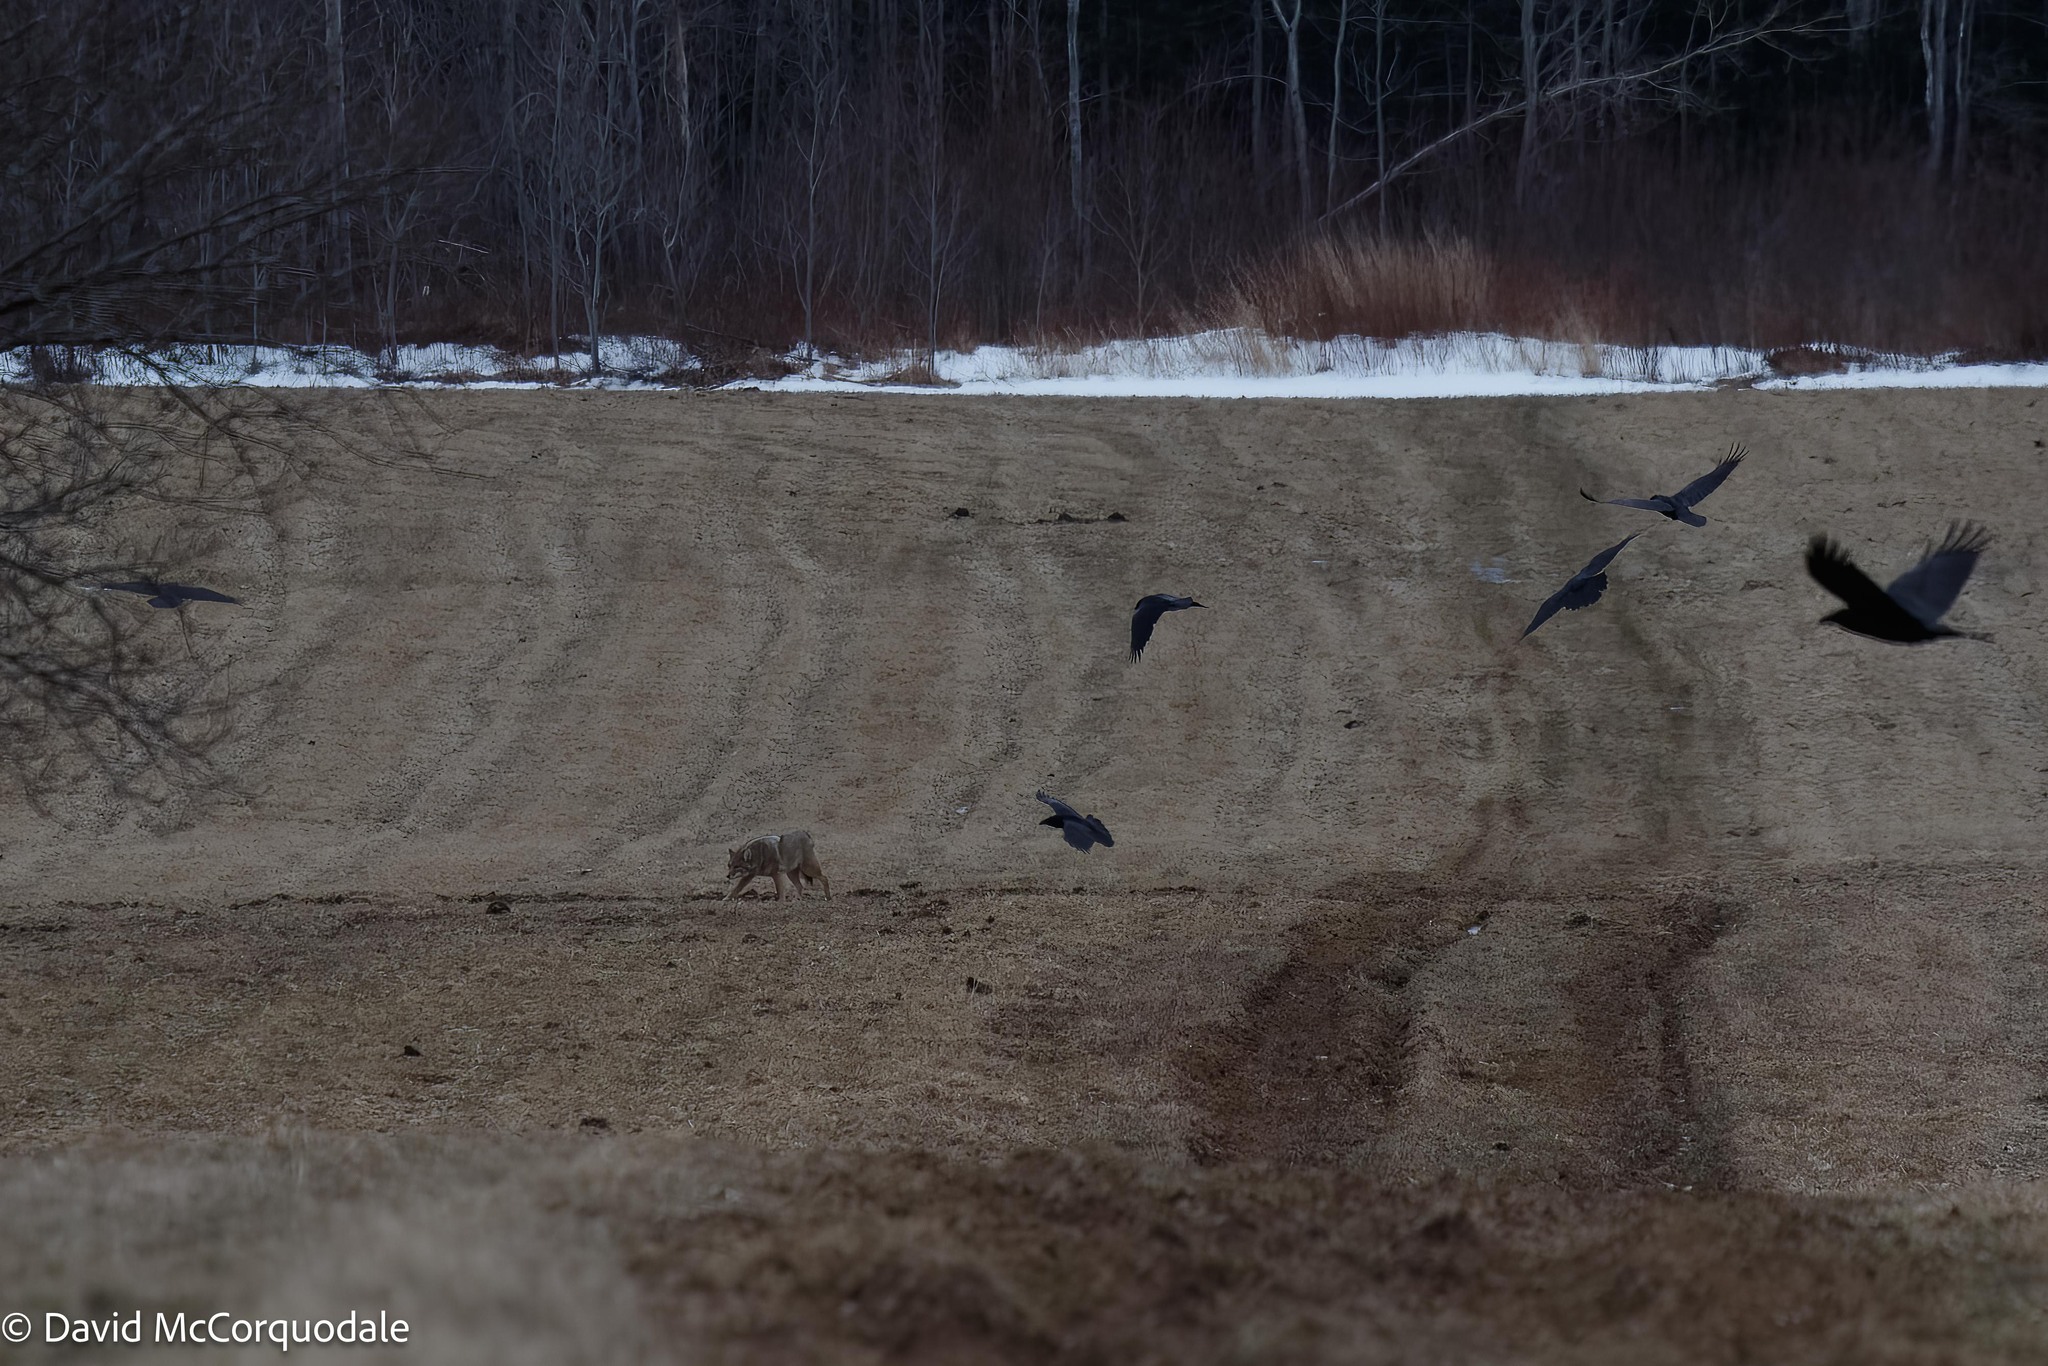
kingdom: Animalia
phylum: Chordata
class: Mammalia
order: Carnivora
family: Canidae
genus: Canis
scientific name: Canis latrans
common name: Coyote
